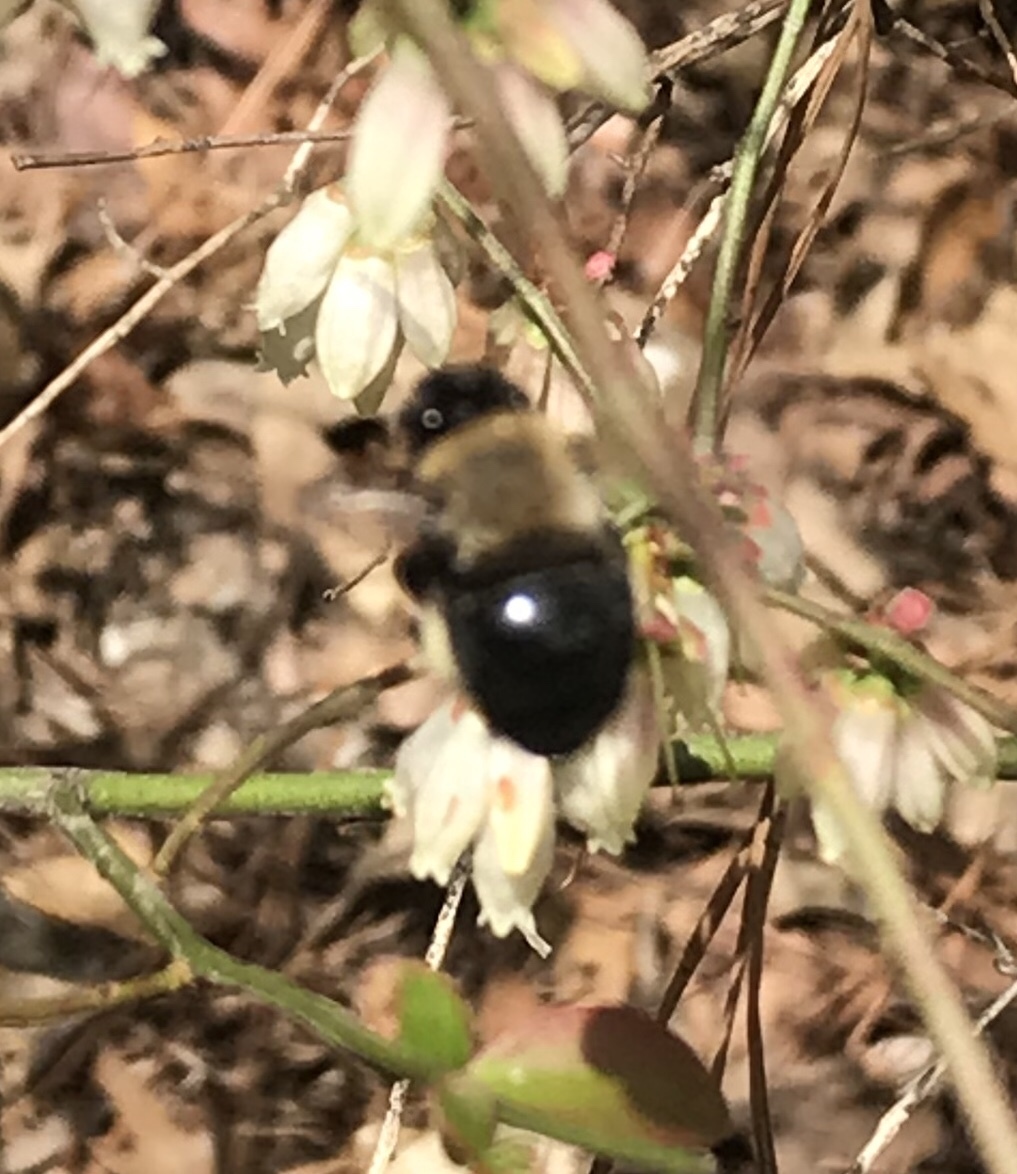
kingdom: Animalia
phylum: Arthropoda
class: Insecta
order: Hymenoptera
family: Apidae
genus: Habropoda
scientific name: Habropoda laboriosa
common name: Southeastern blueberry bee
